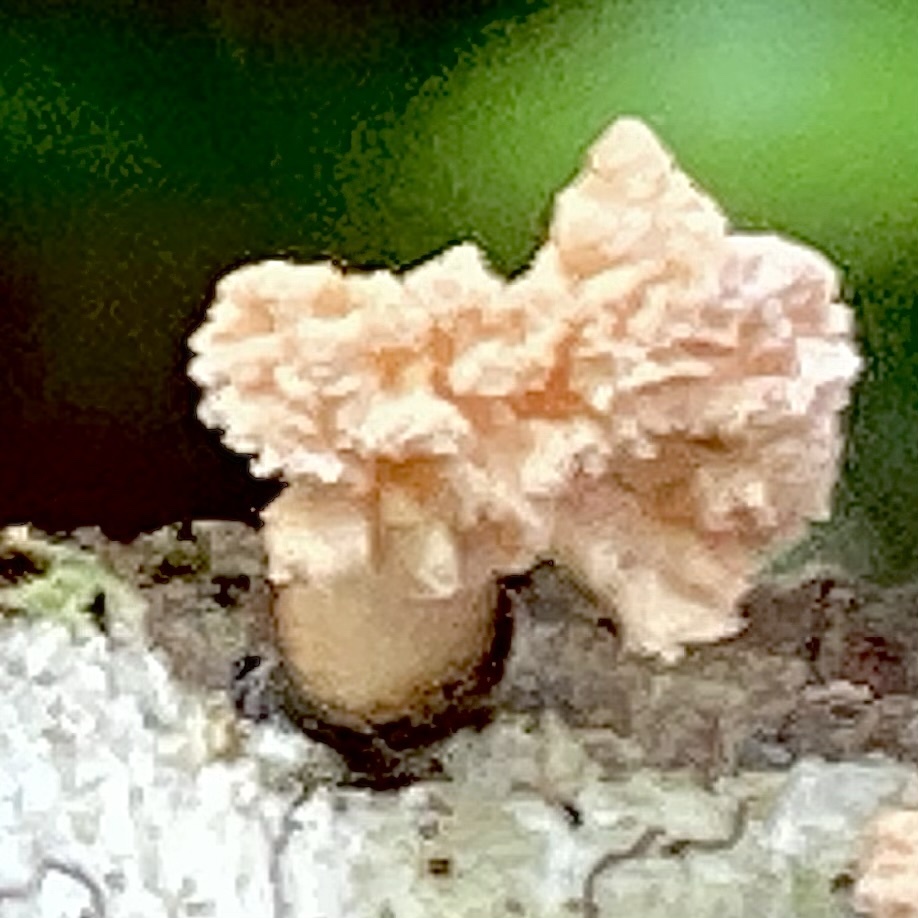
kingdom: Fungi
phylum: Ascomycota
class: Sordariomycetes
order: Xylariales
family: Xylariaceae
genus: Xylaria
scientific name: Xylaria cubensis
